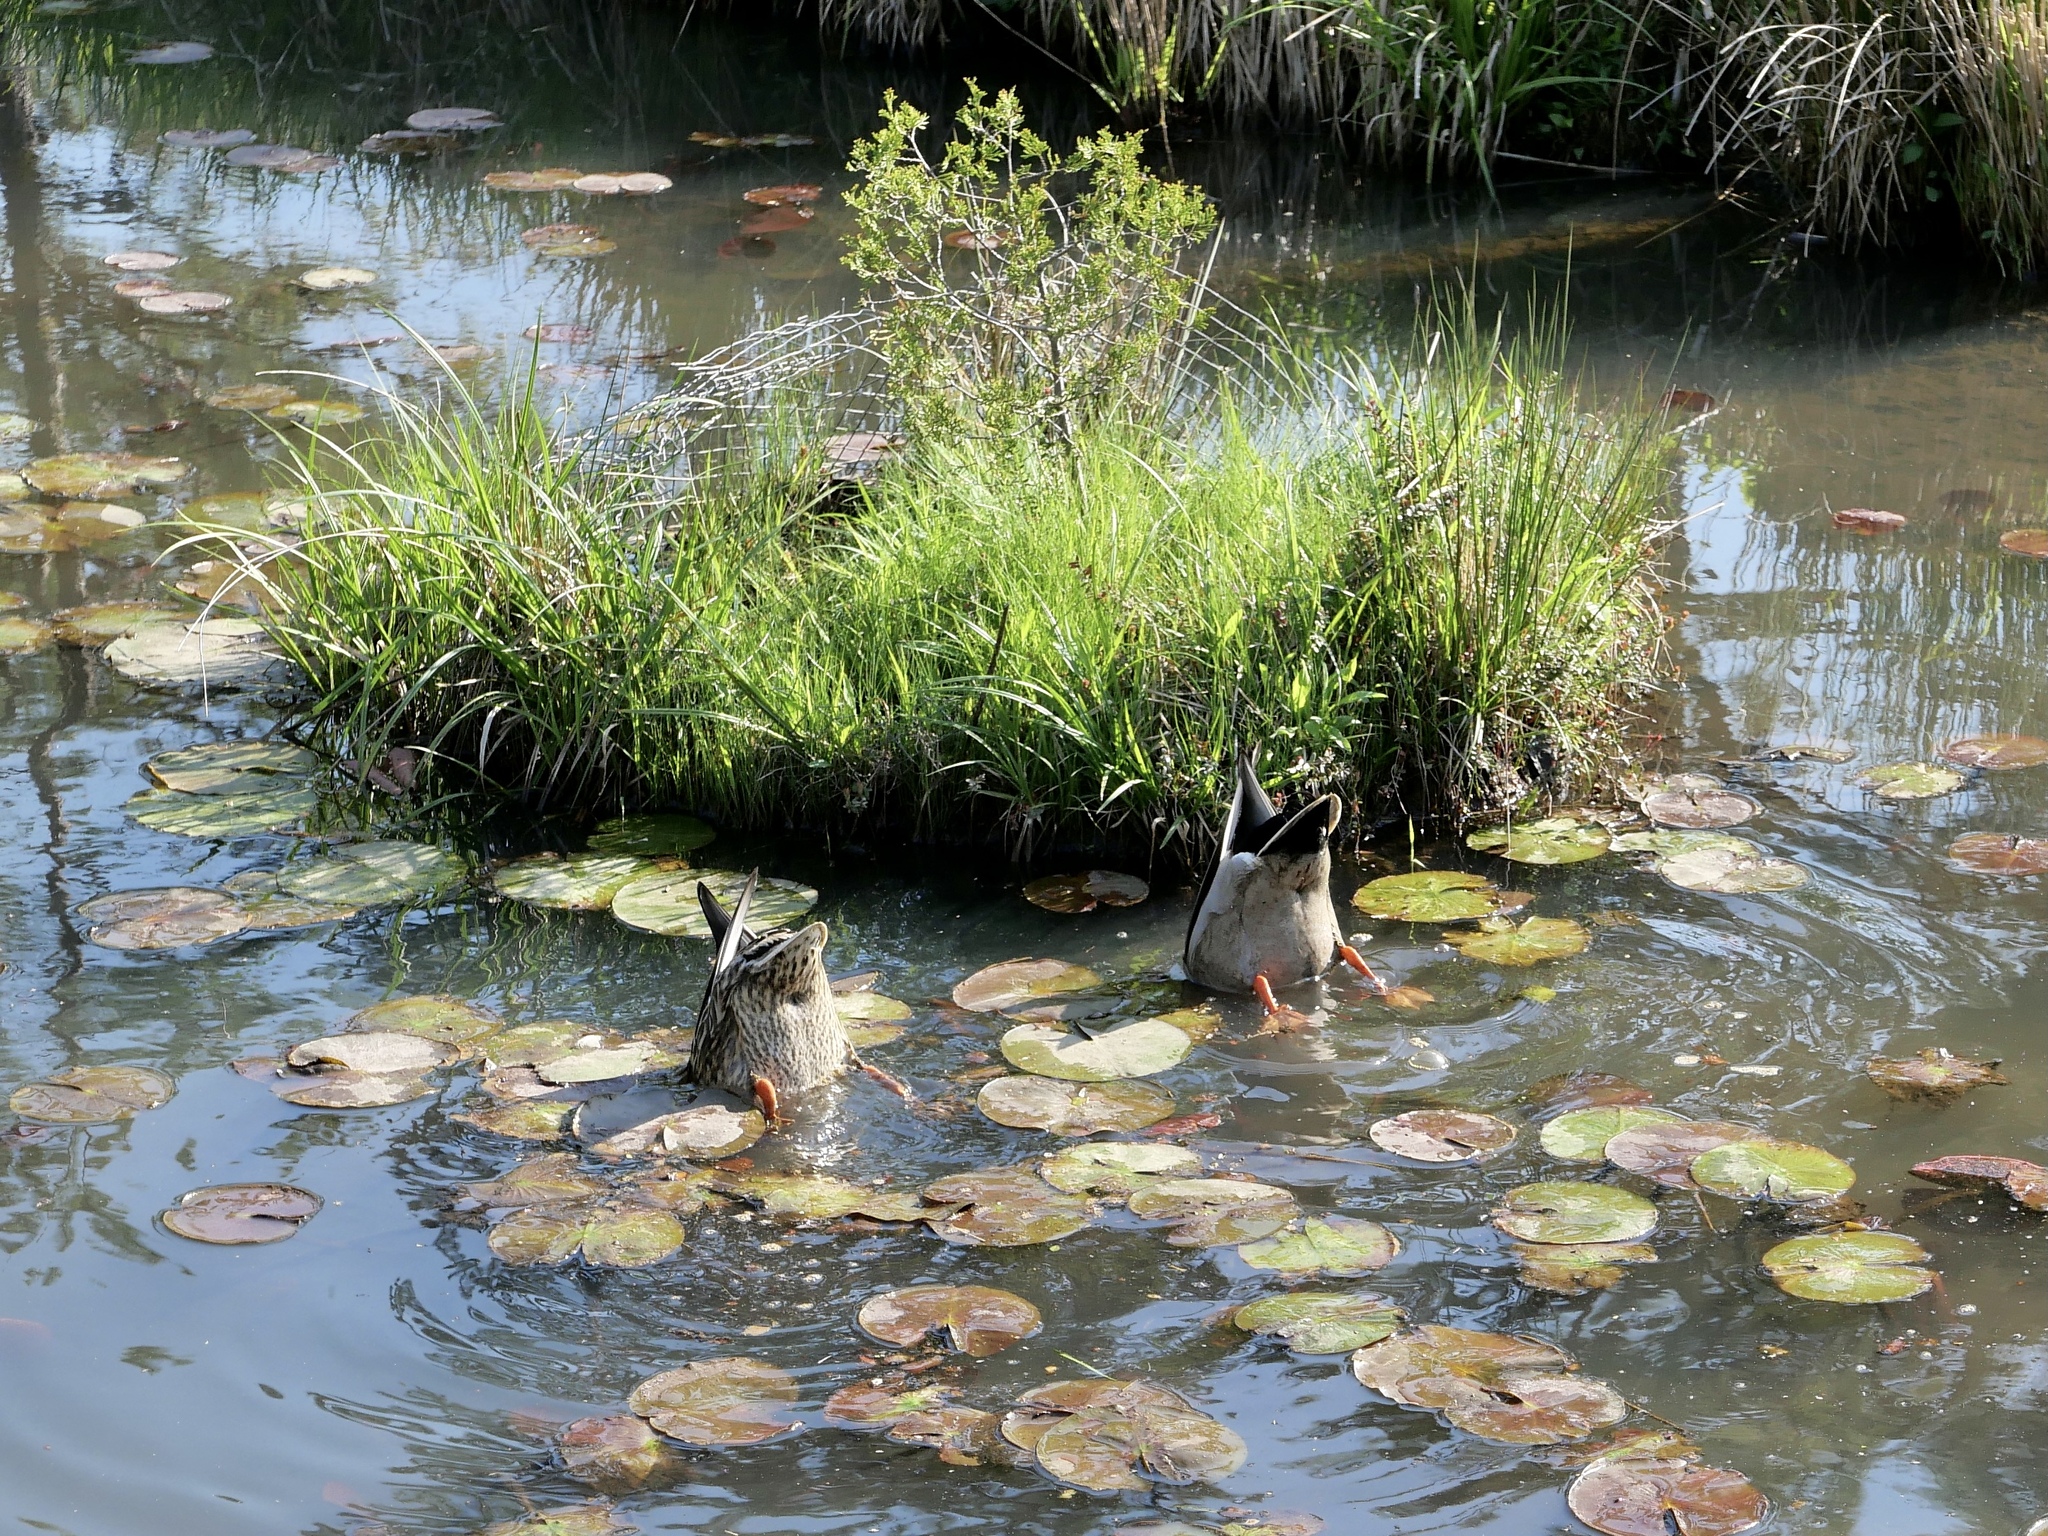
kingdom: Animalia
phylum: Chordata
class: Aves
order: Anseriformes
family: Anatidae
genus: Anas
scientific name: Anas platyrhynchos
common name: Mallard
